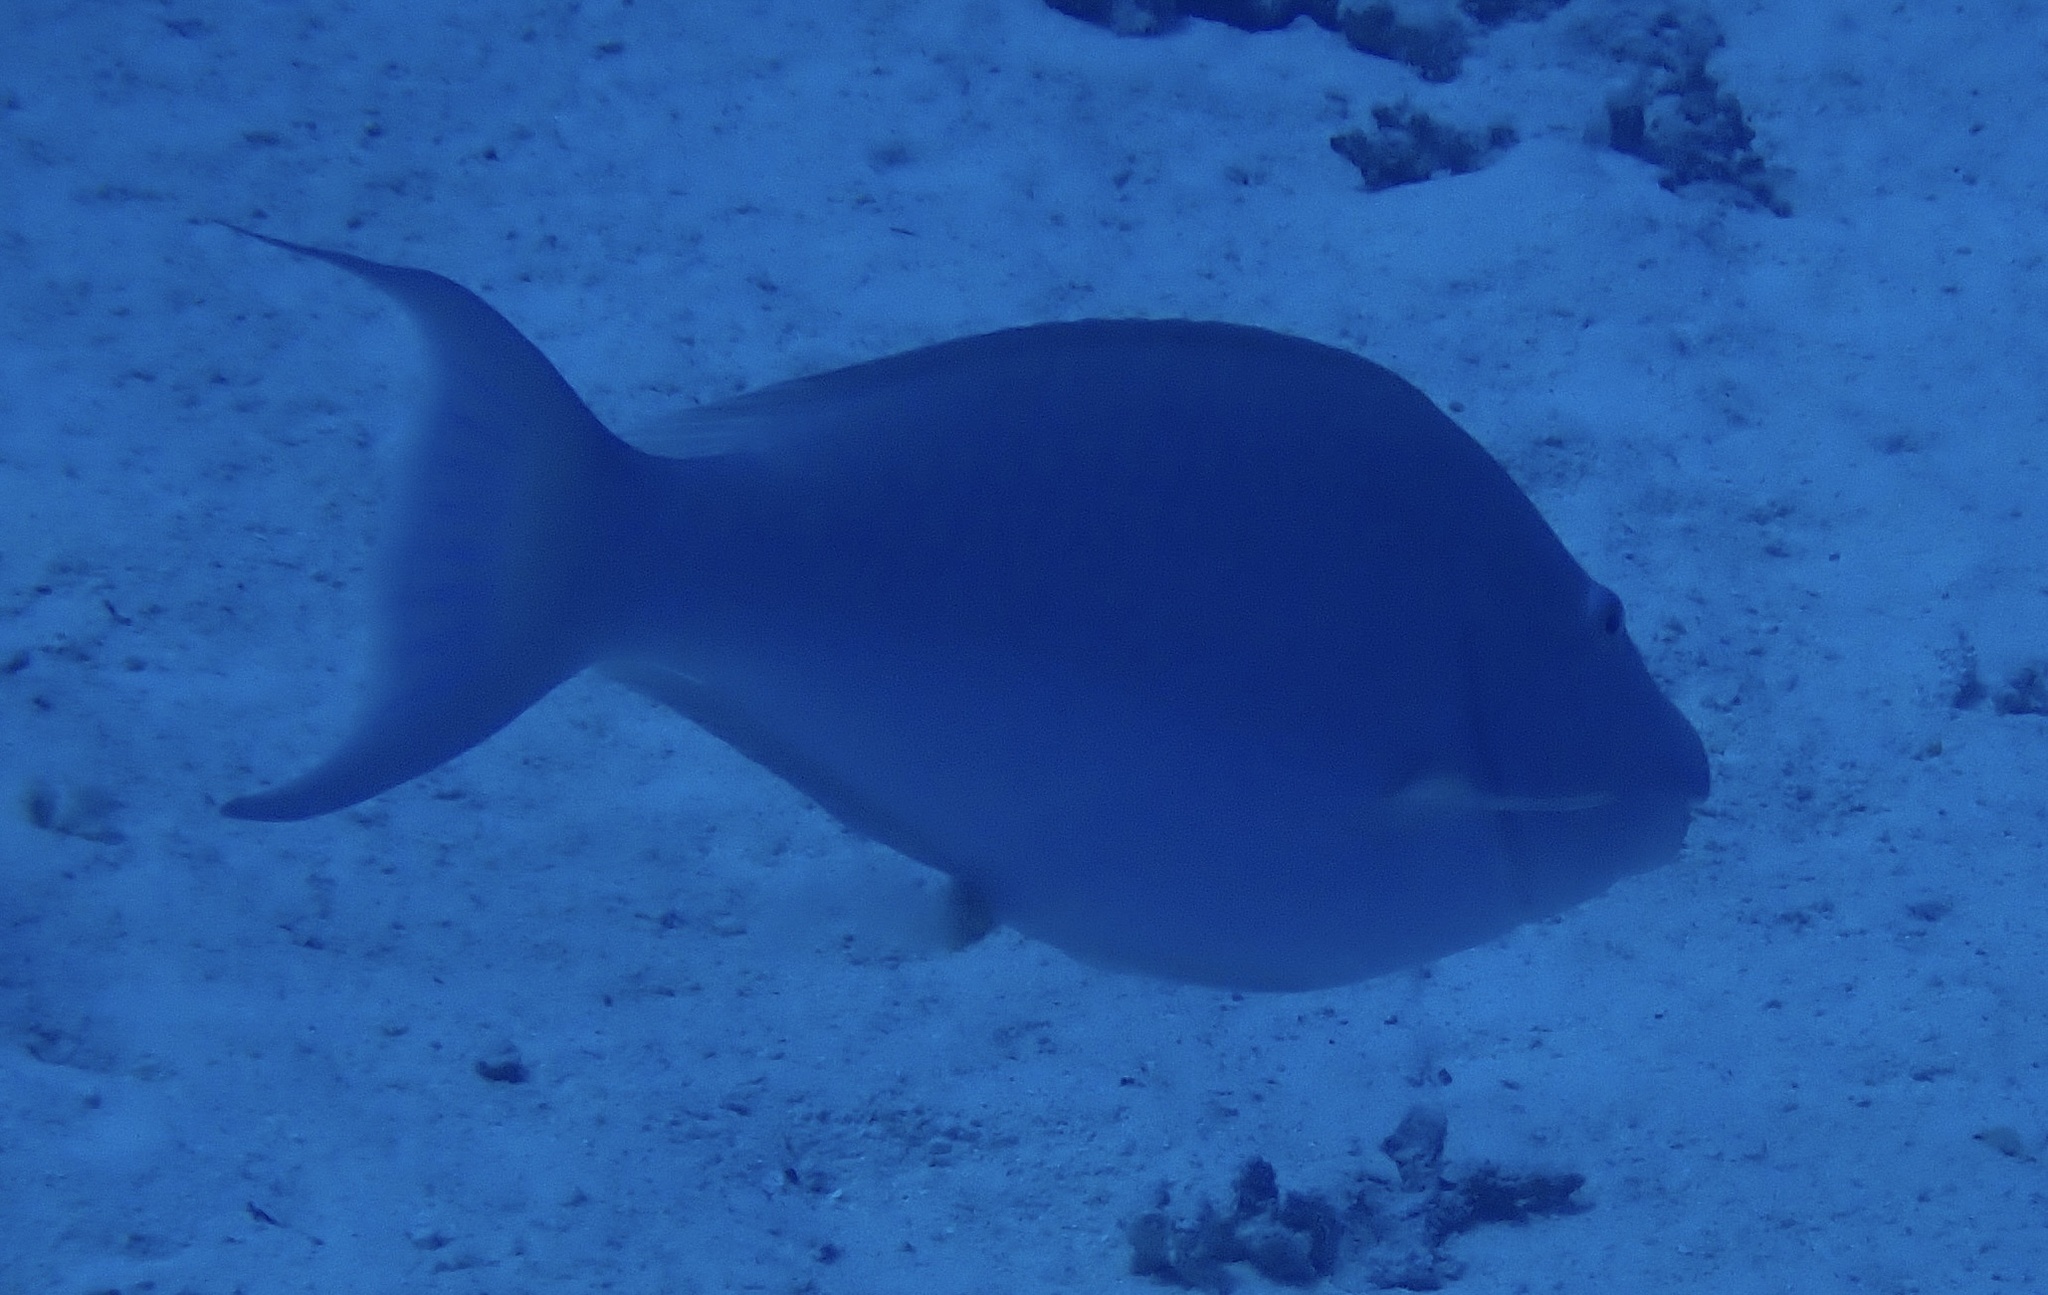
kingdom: Animalia
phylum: Chordata
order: Perciformes
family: Scaridae
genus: Hipposcarus
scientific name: Hipposcarus harid
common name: Candelamoa parrotfish
